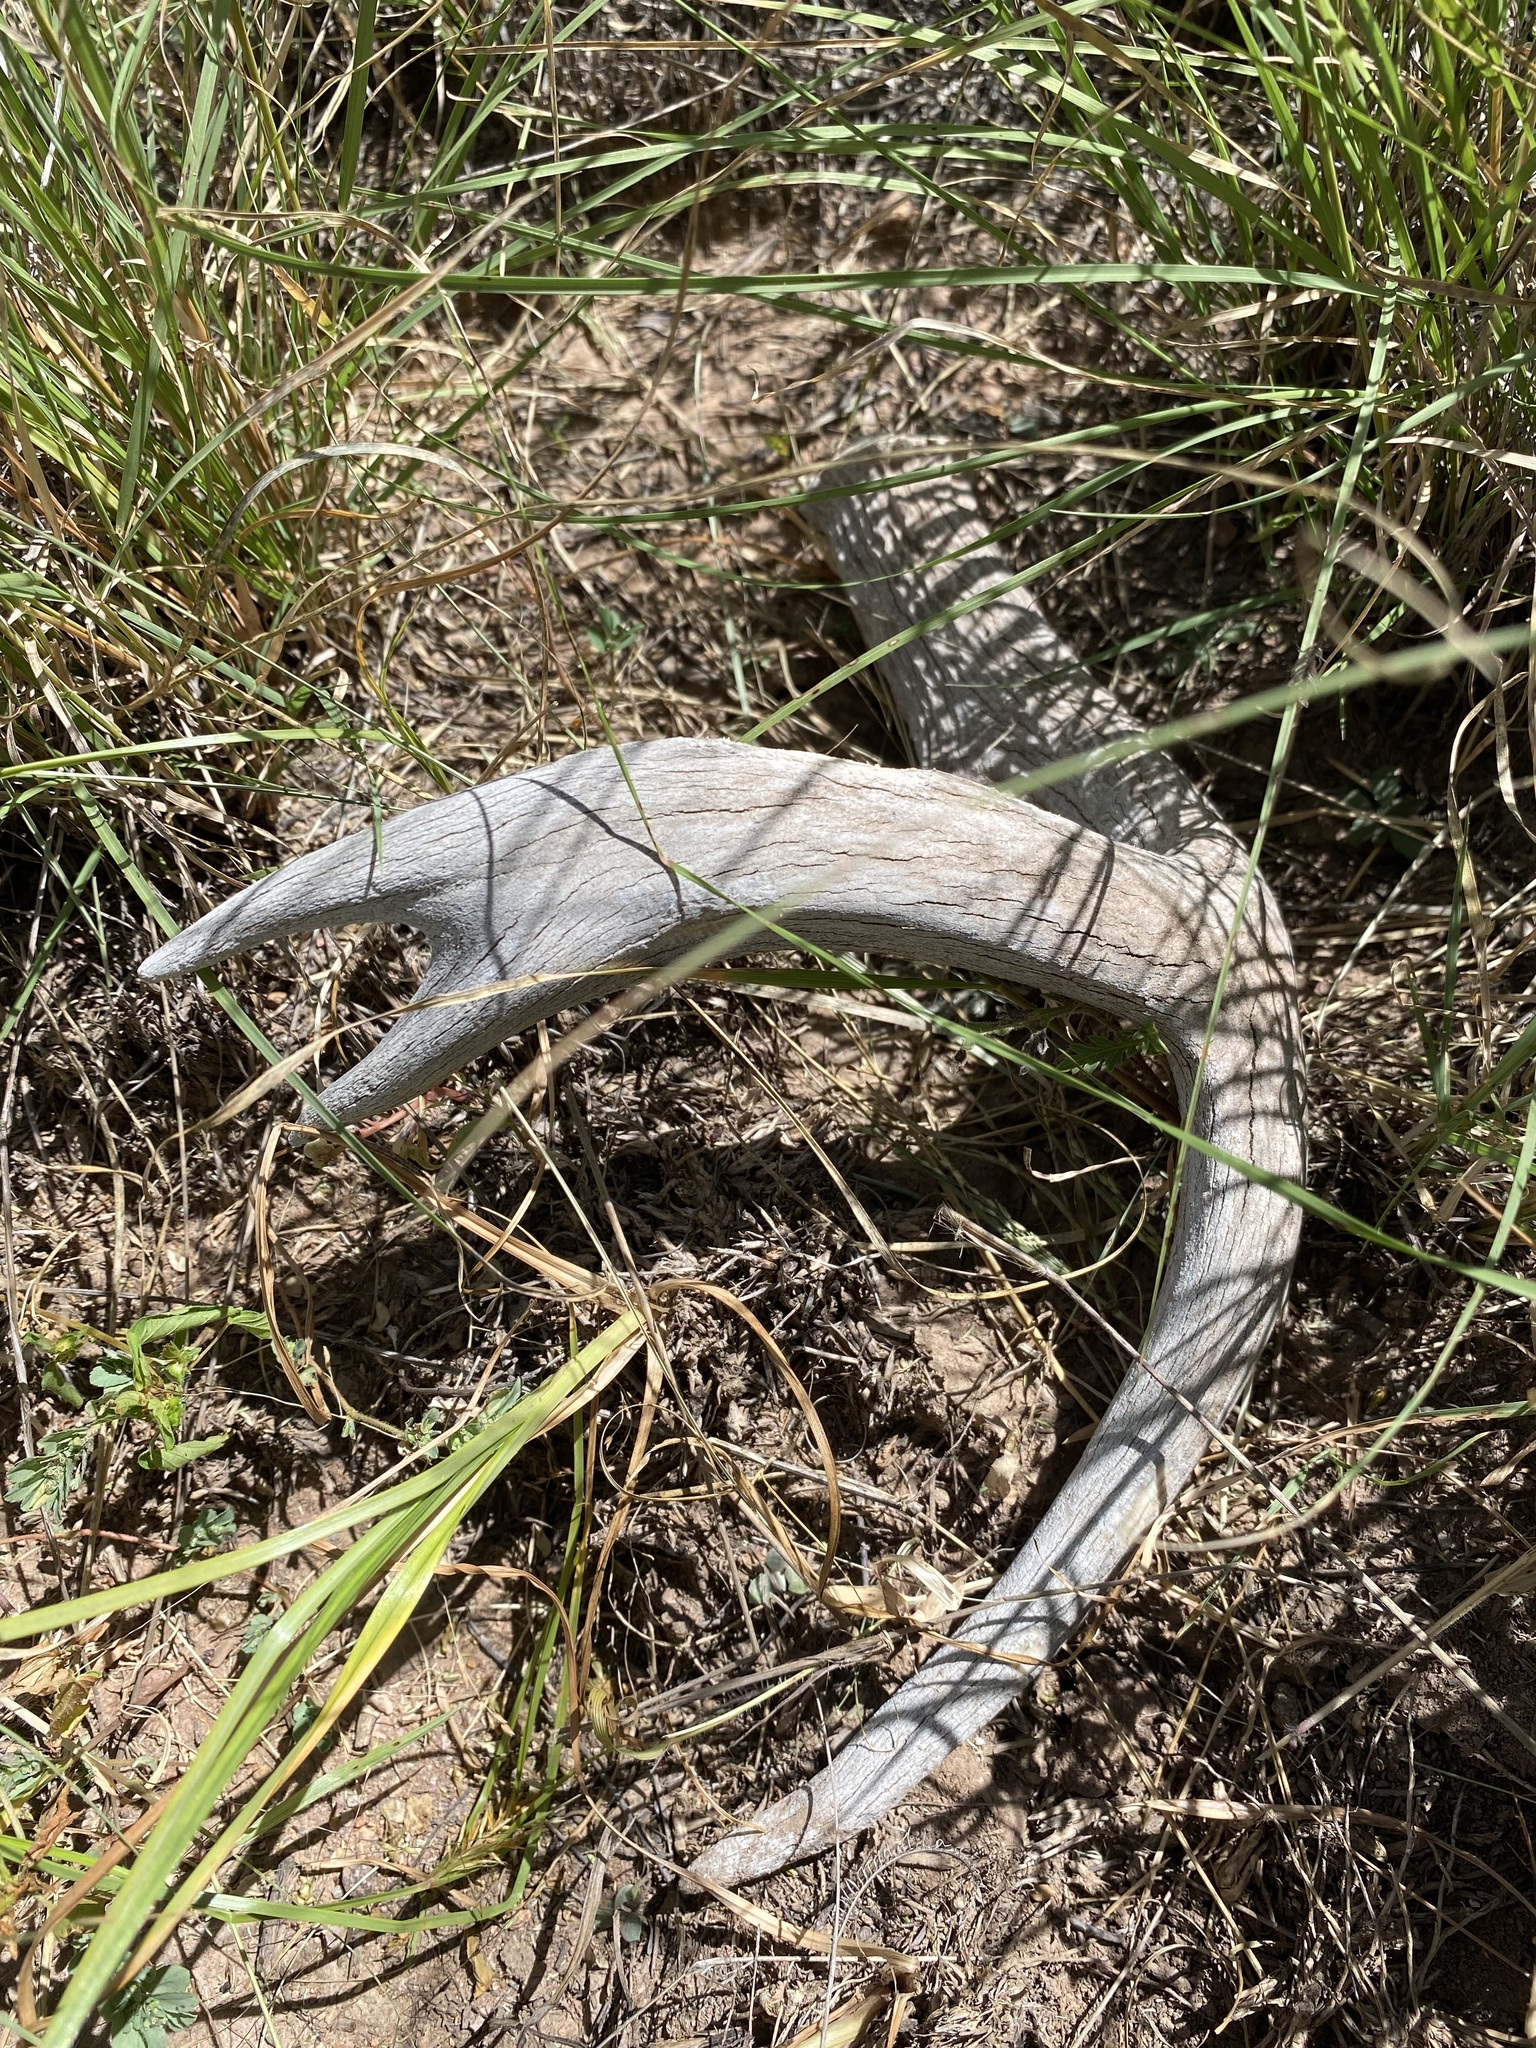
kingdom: Animalia
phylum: Chordata
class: Mammalia
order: Artiodactyla
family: Cervidae
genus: Odocoileus
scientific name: Odocoileus hemionus
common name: Mule deer
